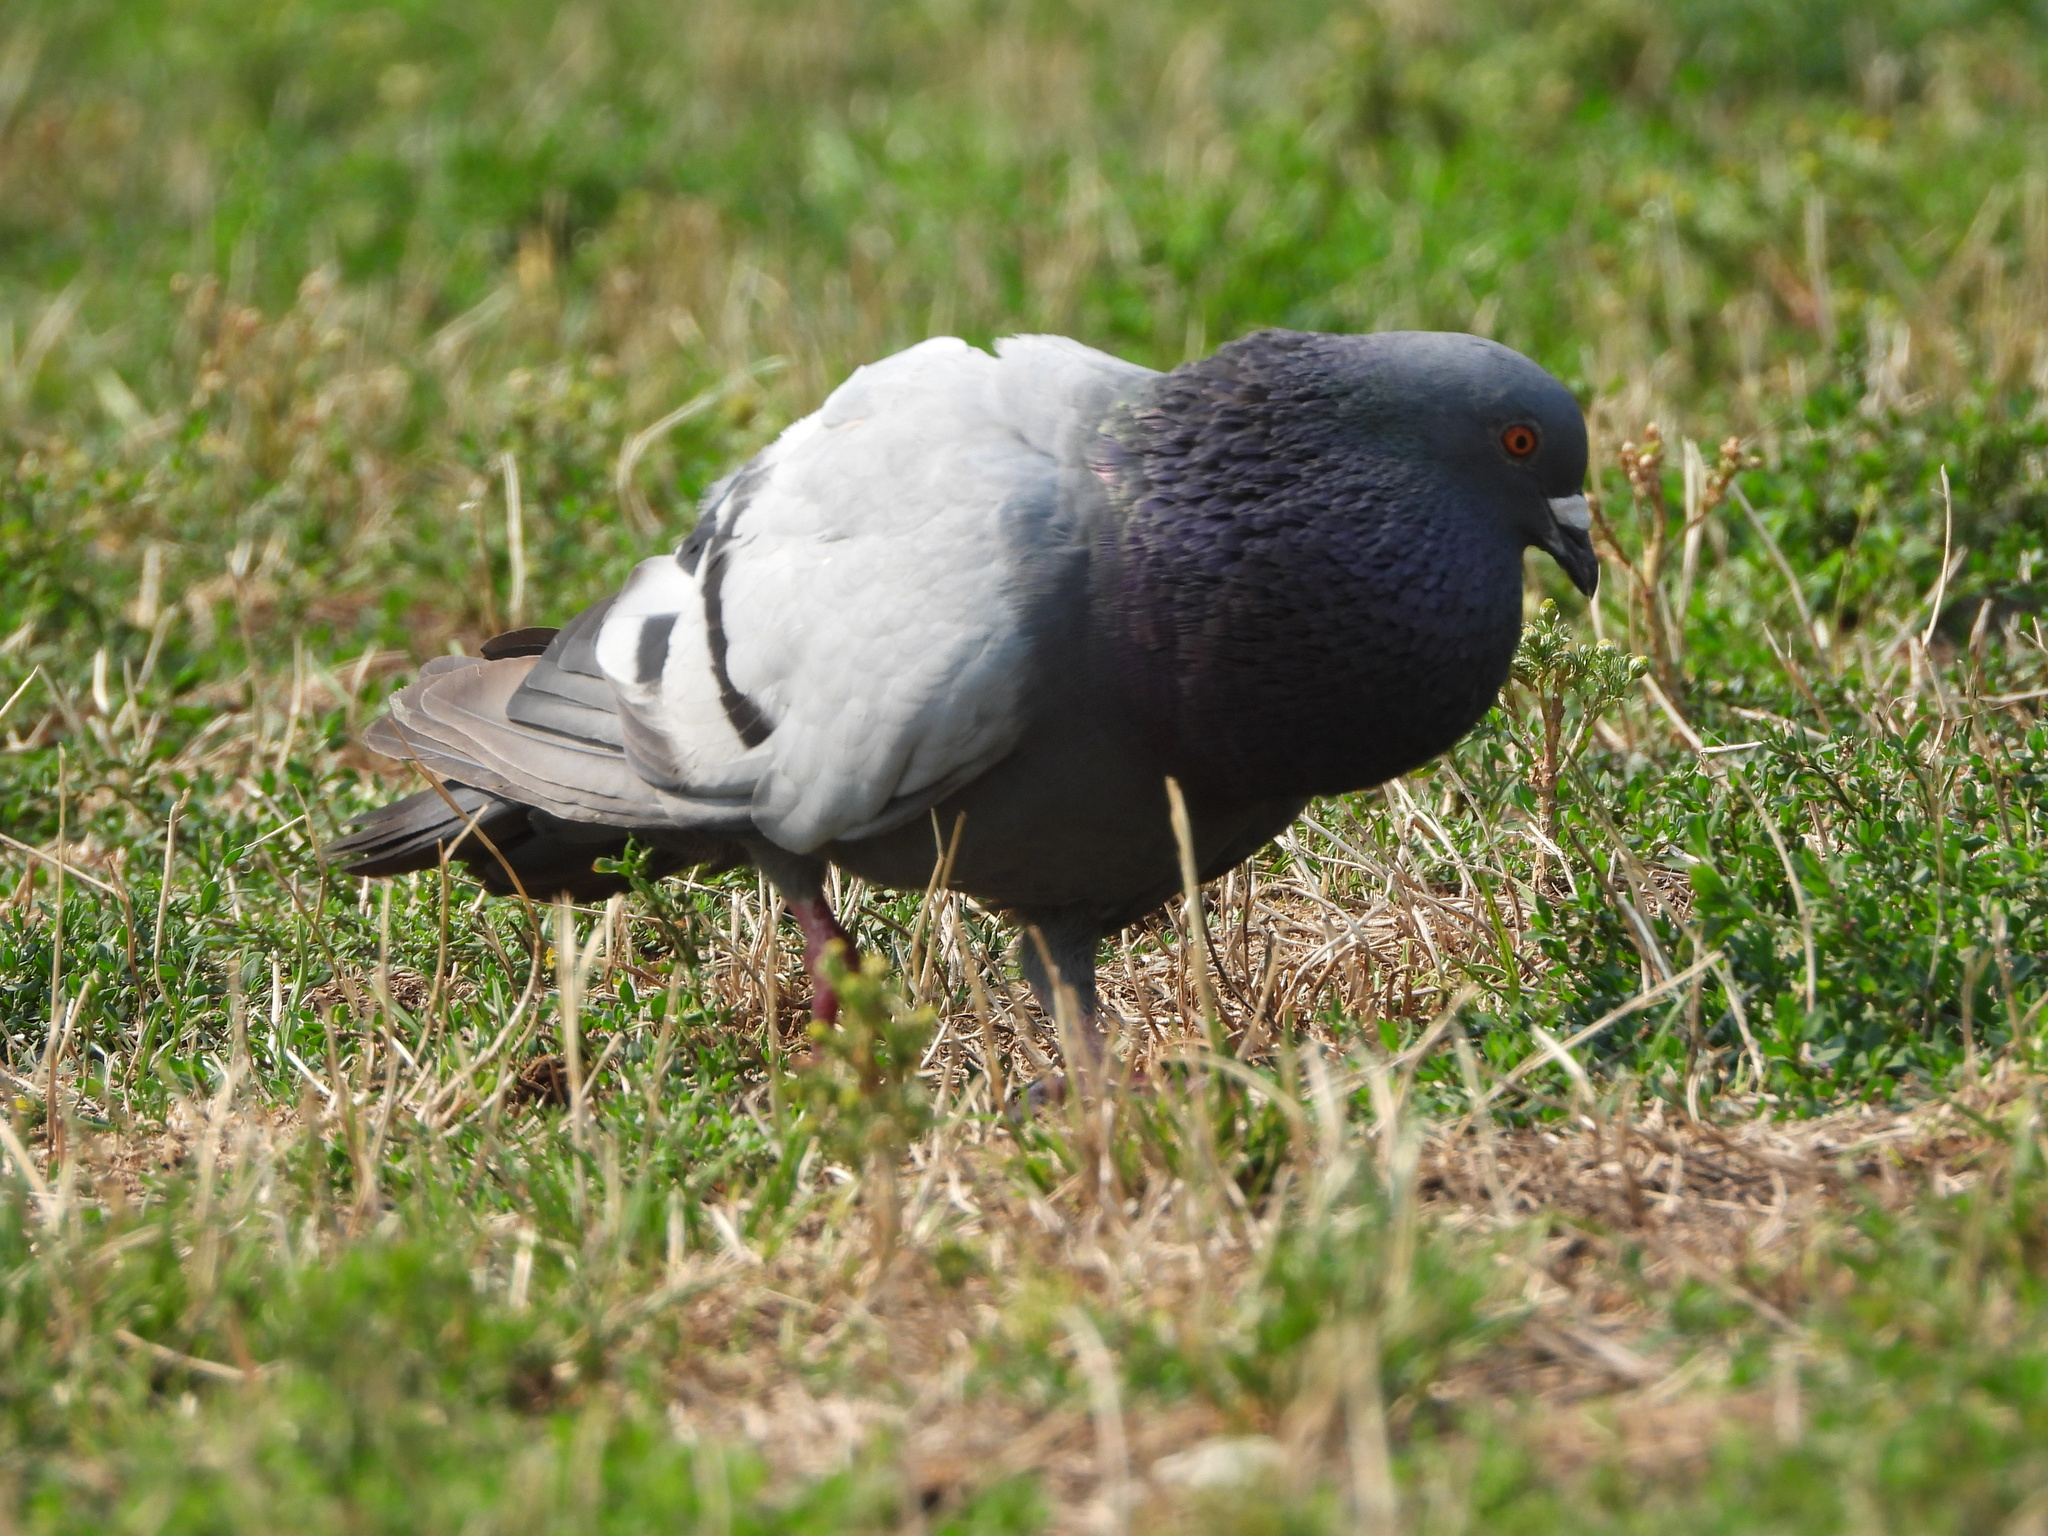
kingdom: Animalia
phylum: Chordata
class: Aves
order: Columbiformes
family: Columbidae
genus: Columba
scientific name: Columba livia
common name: Rock pigeon
